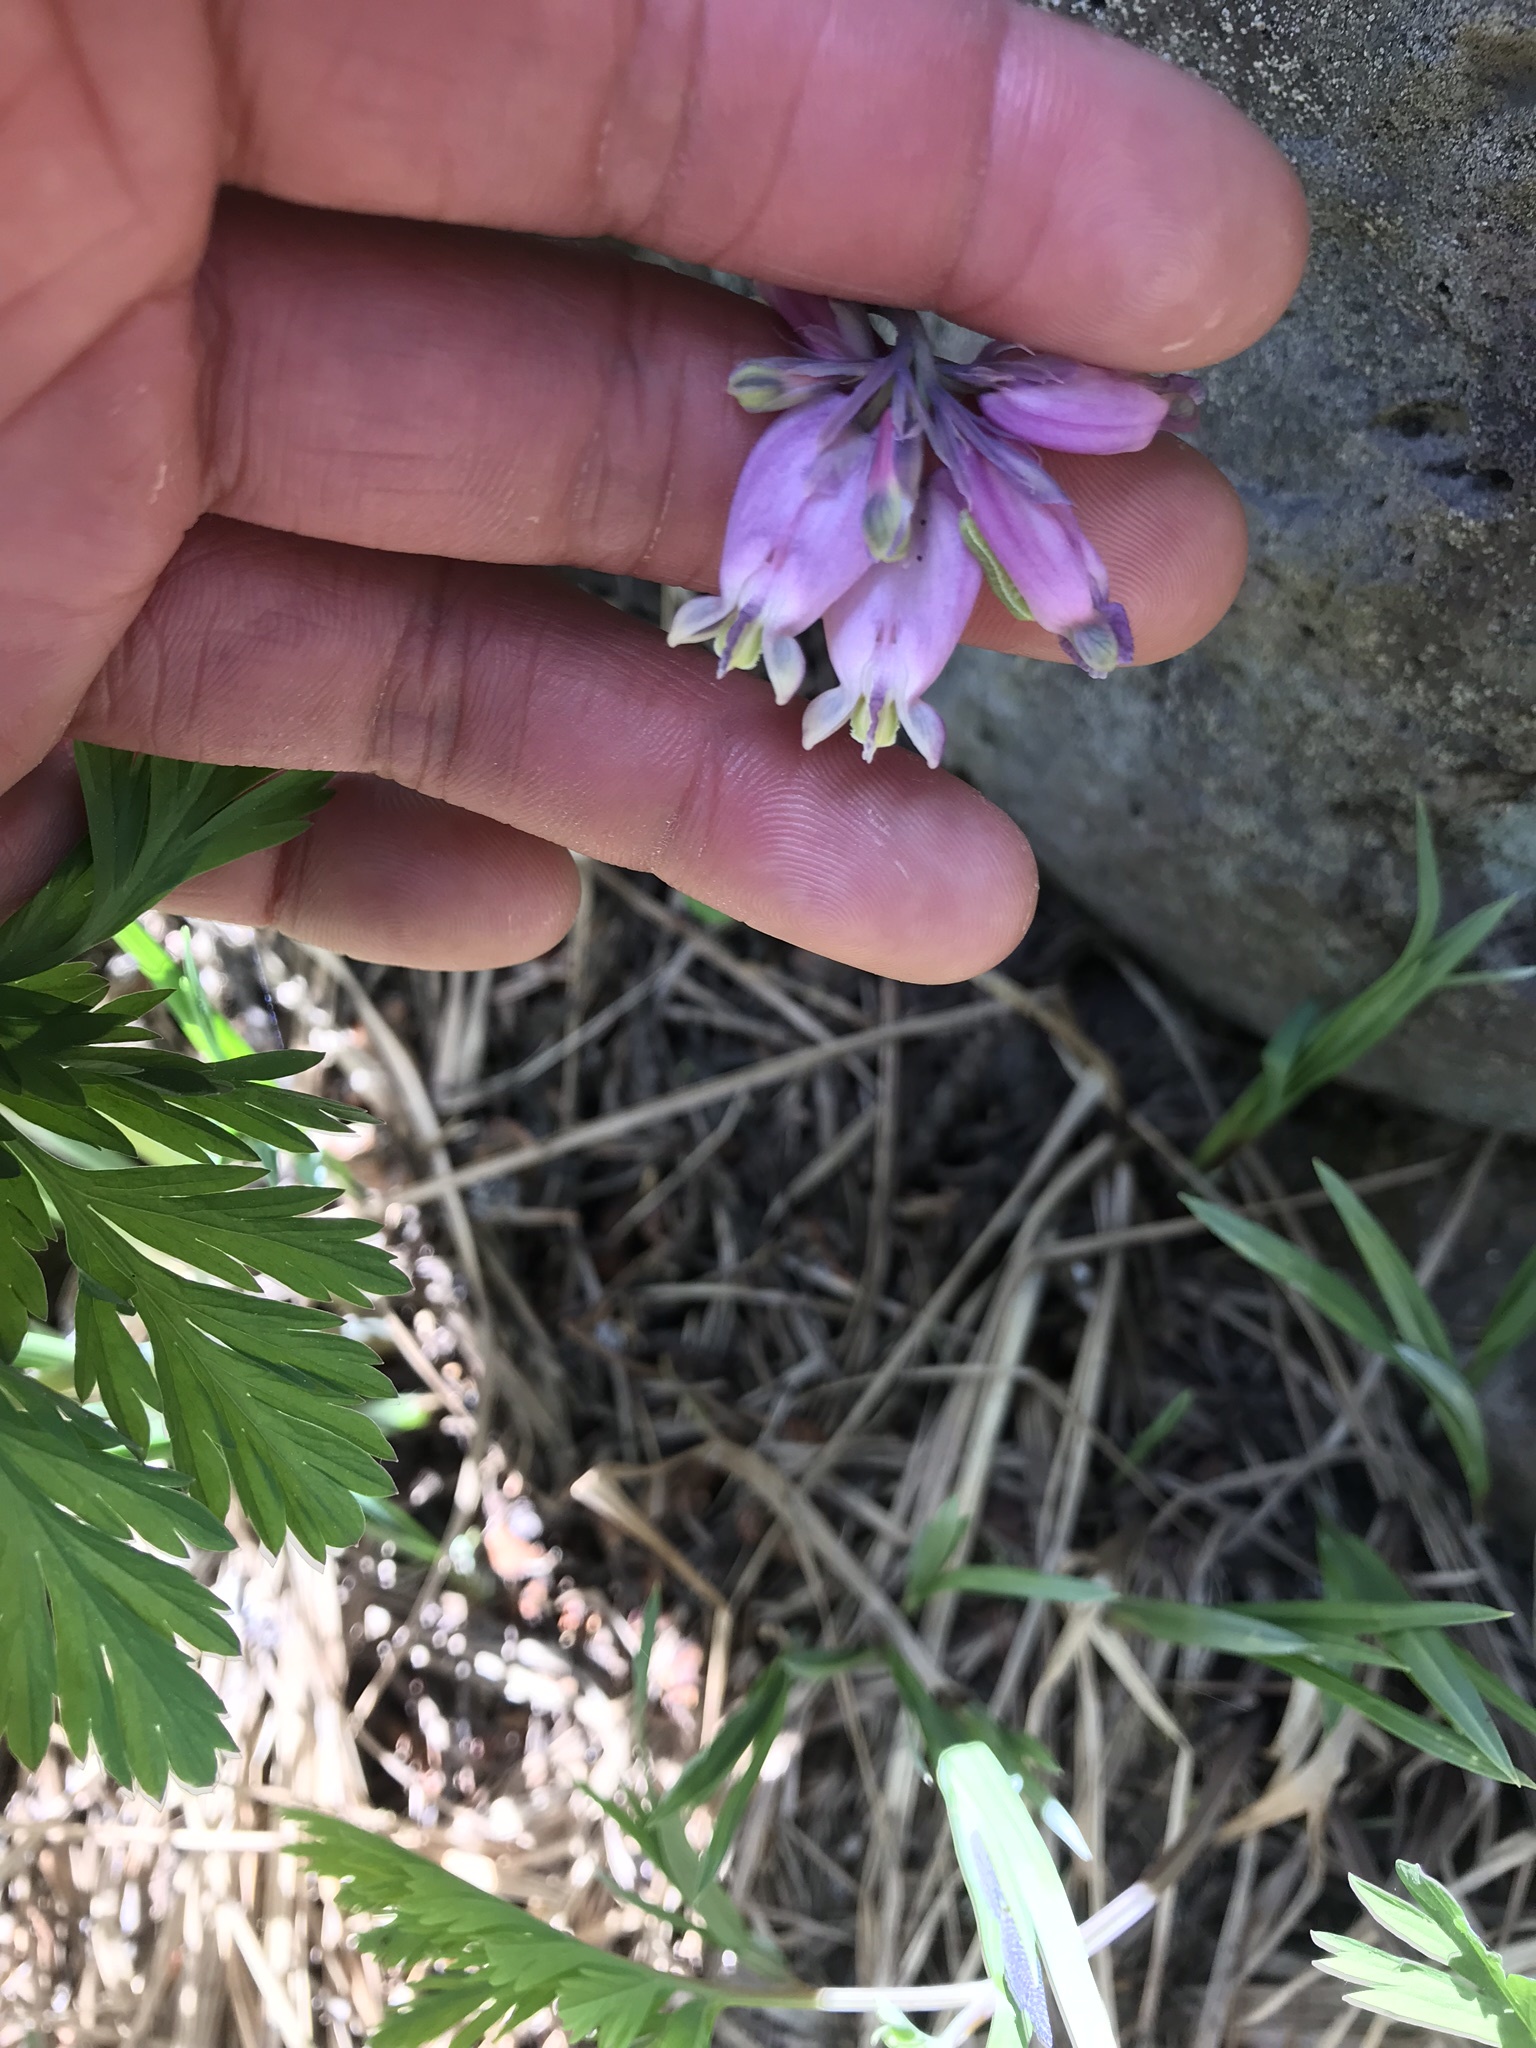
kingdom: Plantae
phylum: Tracheophyta
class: Magnoliopsida
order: Ranunculales
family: Papaveraceae
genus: Dicentra
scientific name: Dicentra formosa
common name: Bleeding-heart
